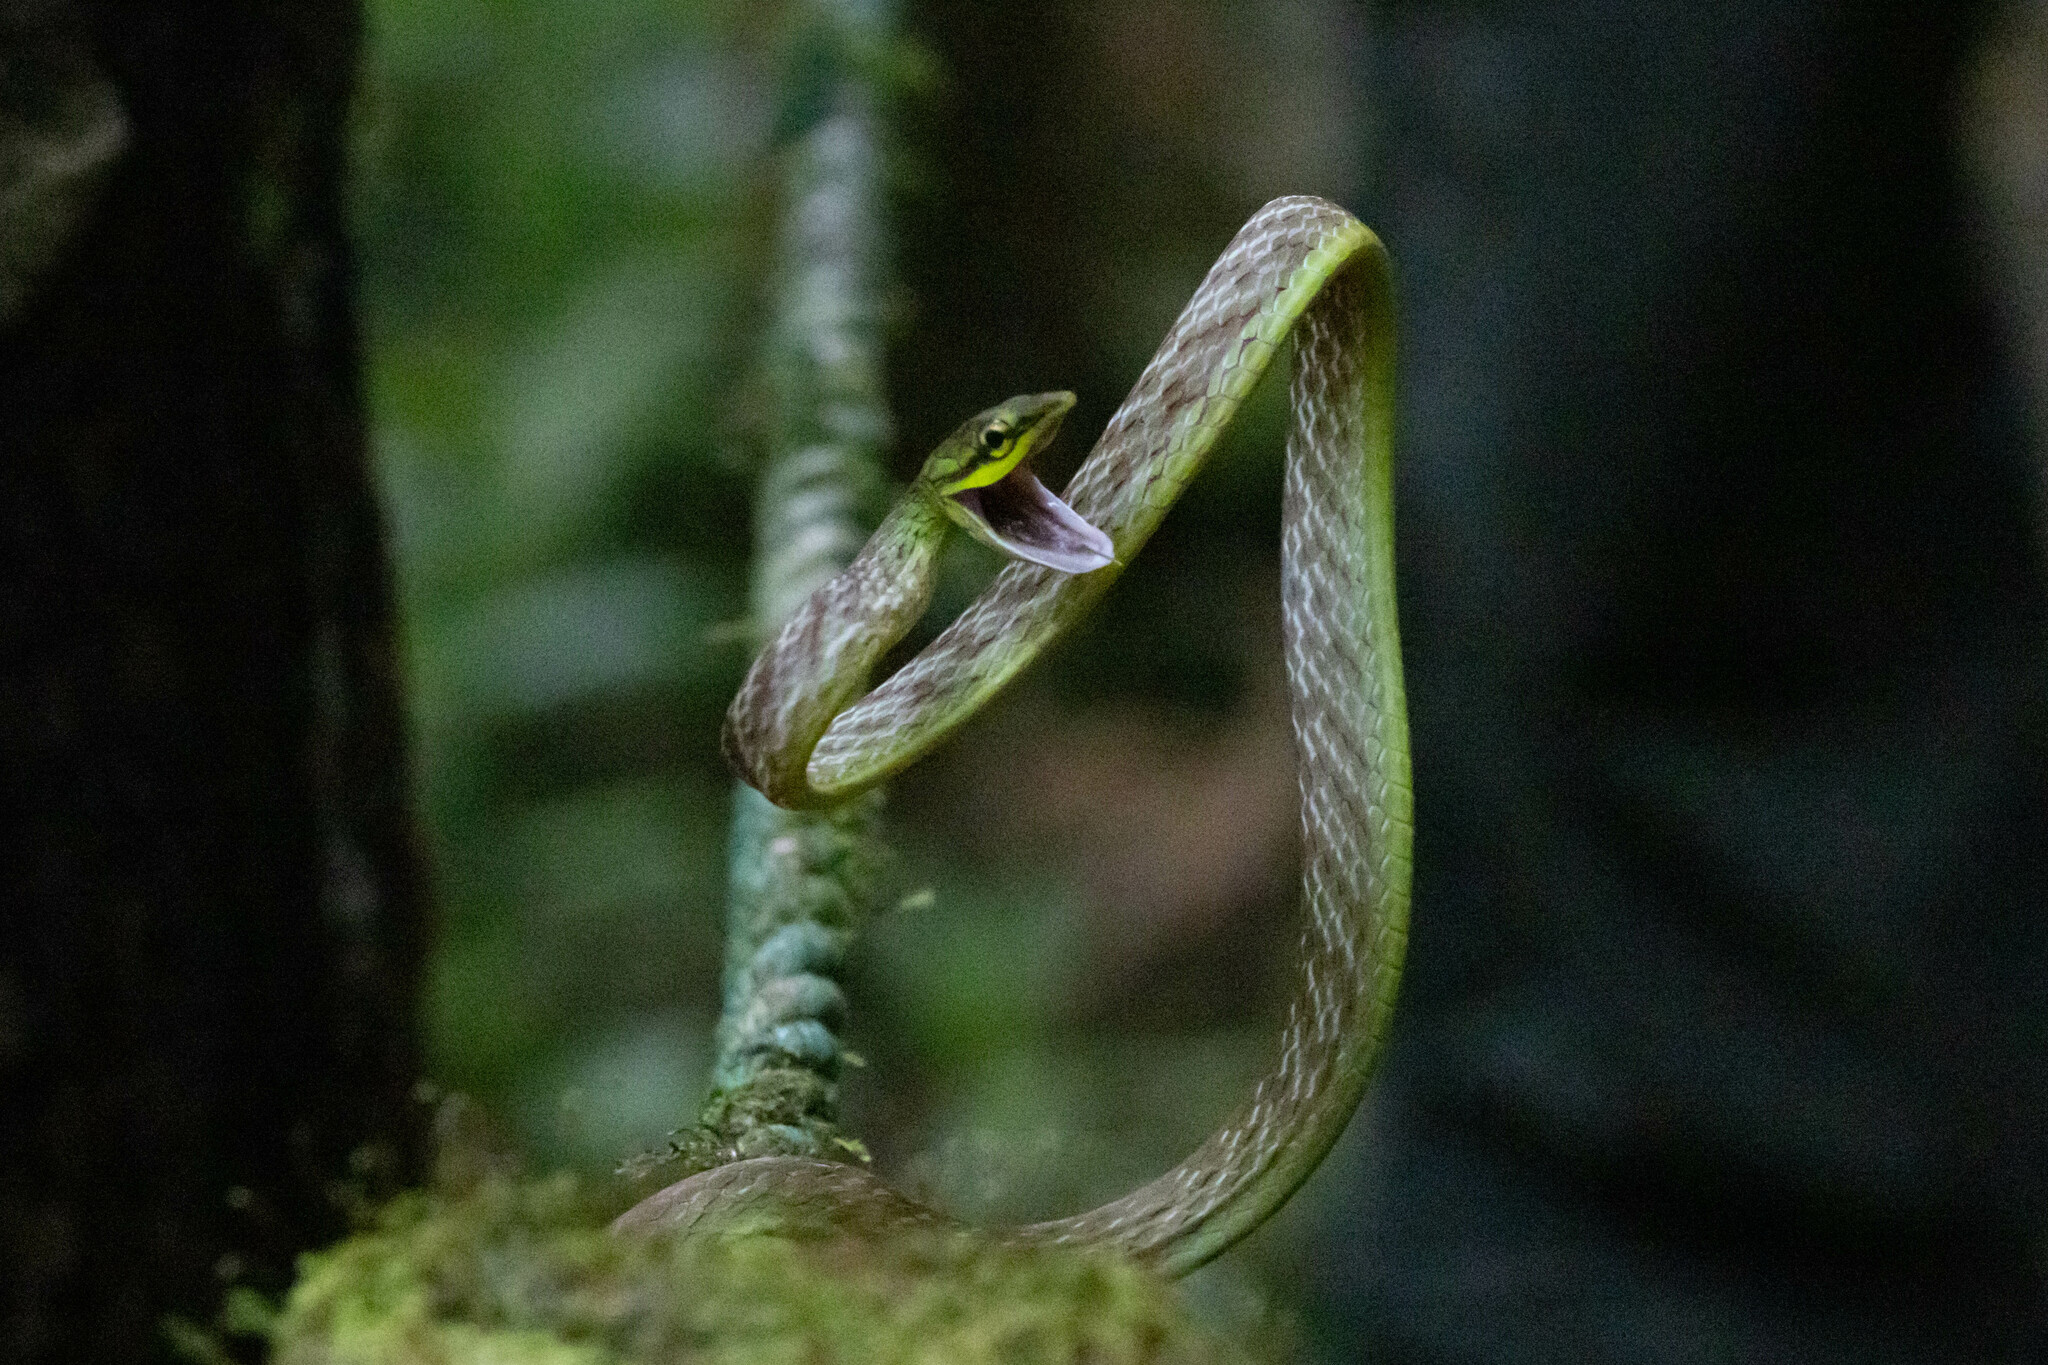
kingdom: Animalia
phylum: Chordata
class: Squamata
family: Colubridae
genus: Oxybelis
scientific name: Oxybelis brevirostris
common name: Cope's vine snake
